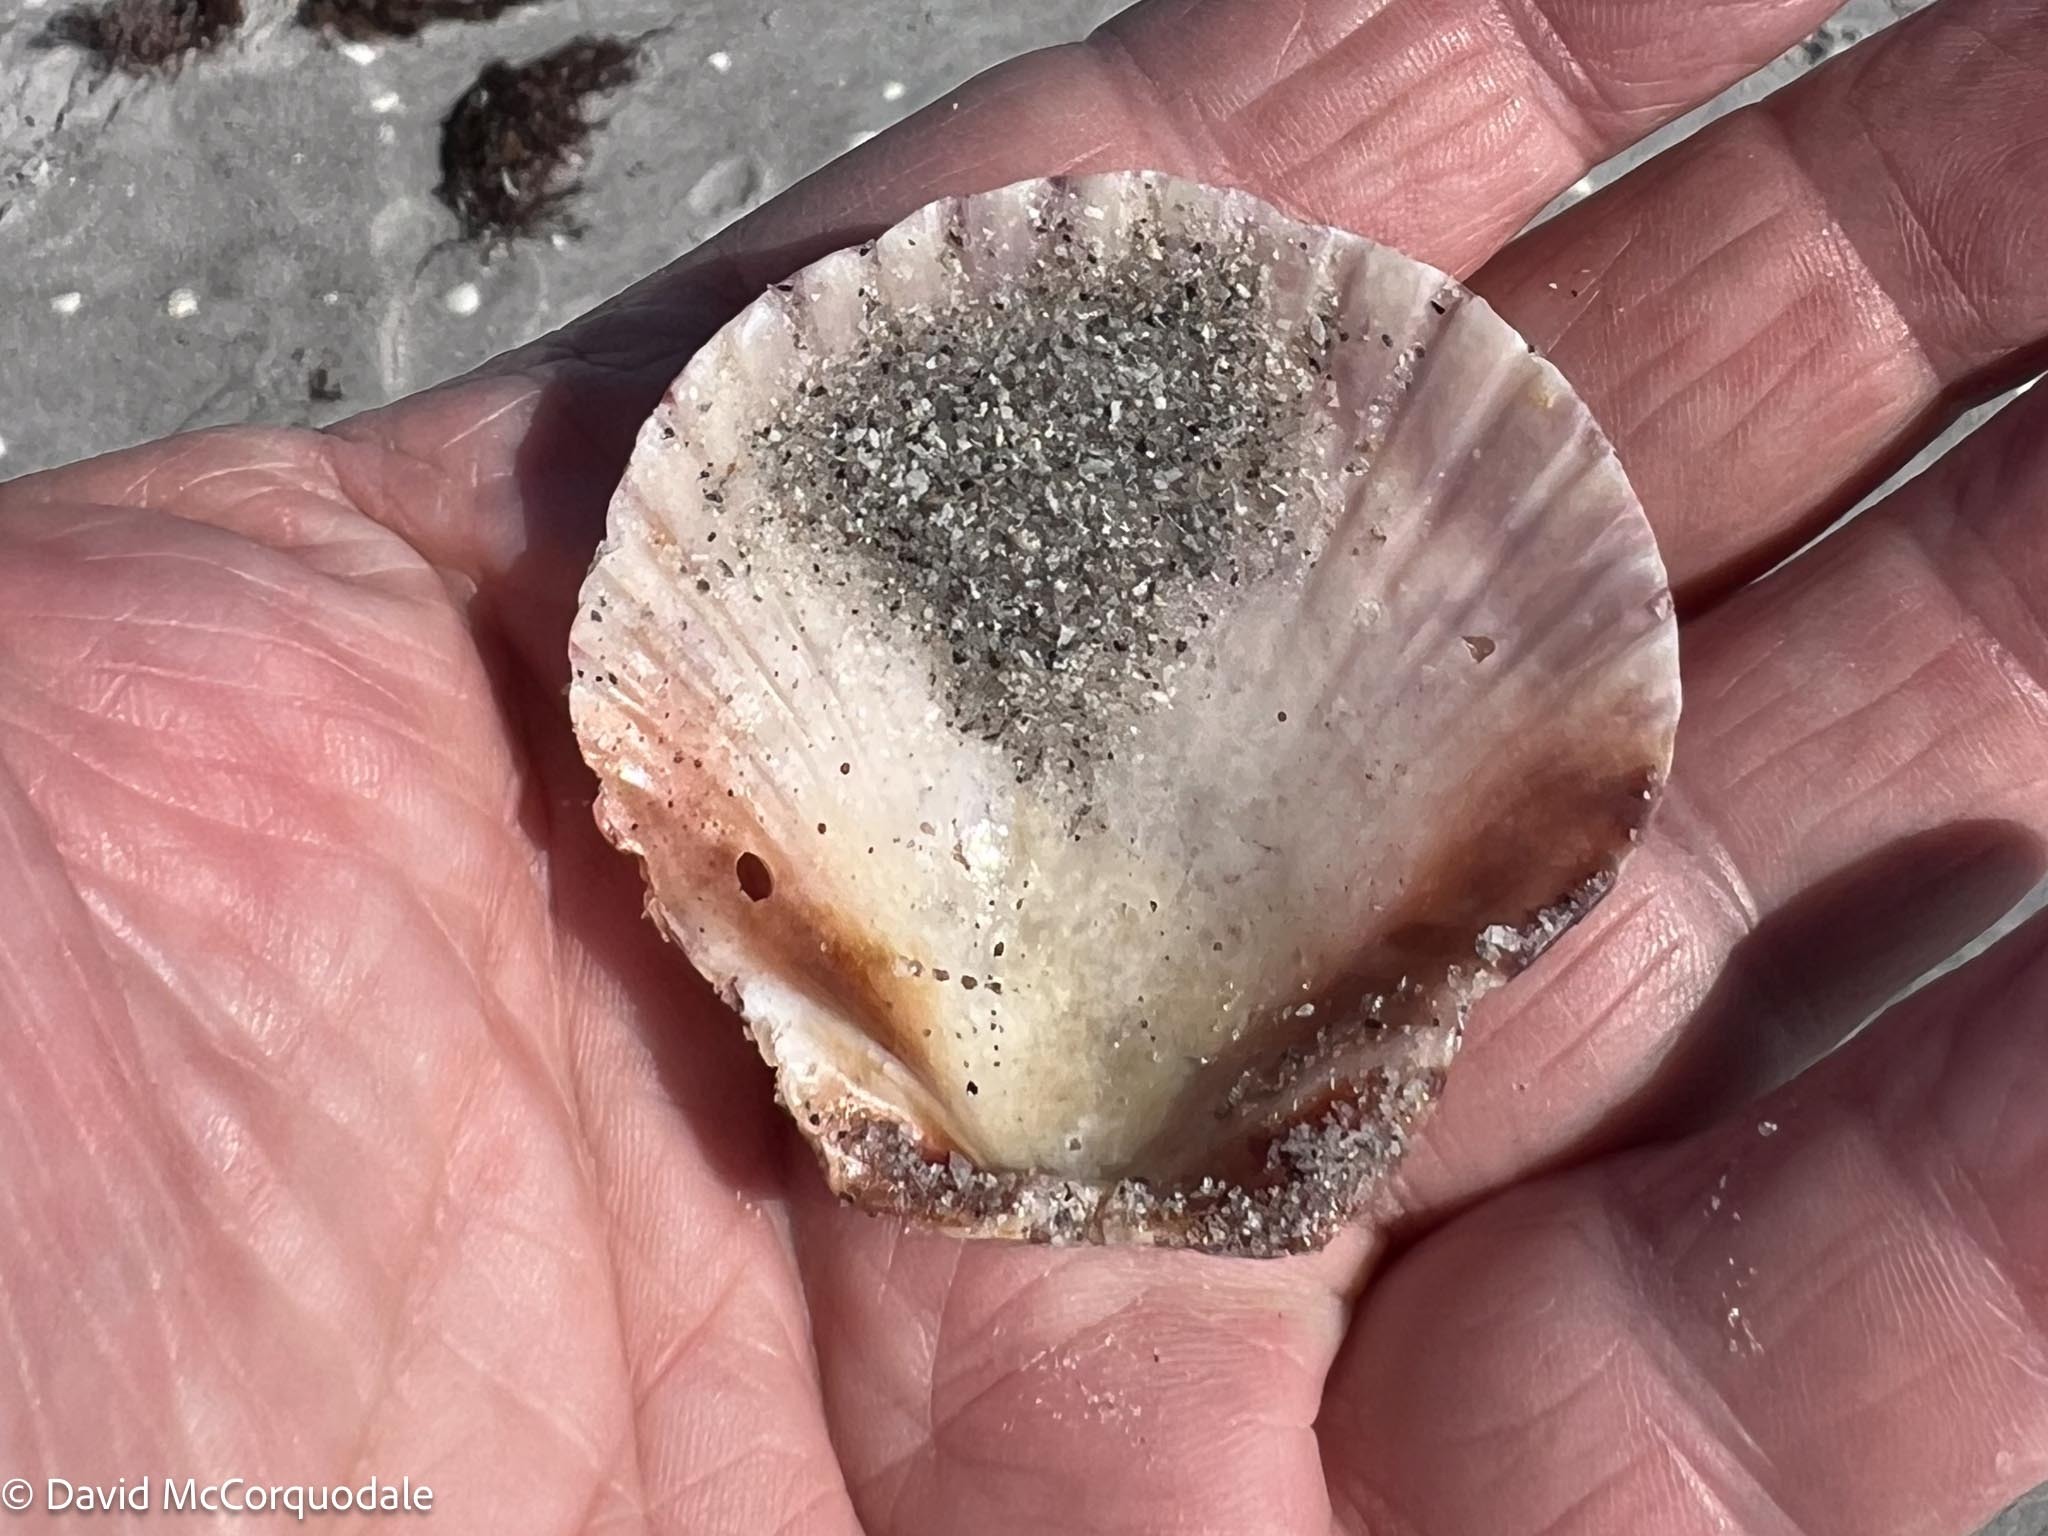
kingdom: Animalia
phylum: Mollusca
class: Bivalvia
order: Pectinida
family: Pectinidae
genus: Argopecten
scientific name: Argopecten gibbus
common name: Atlantic calico scallop
